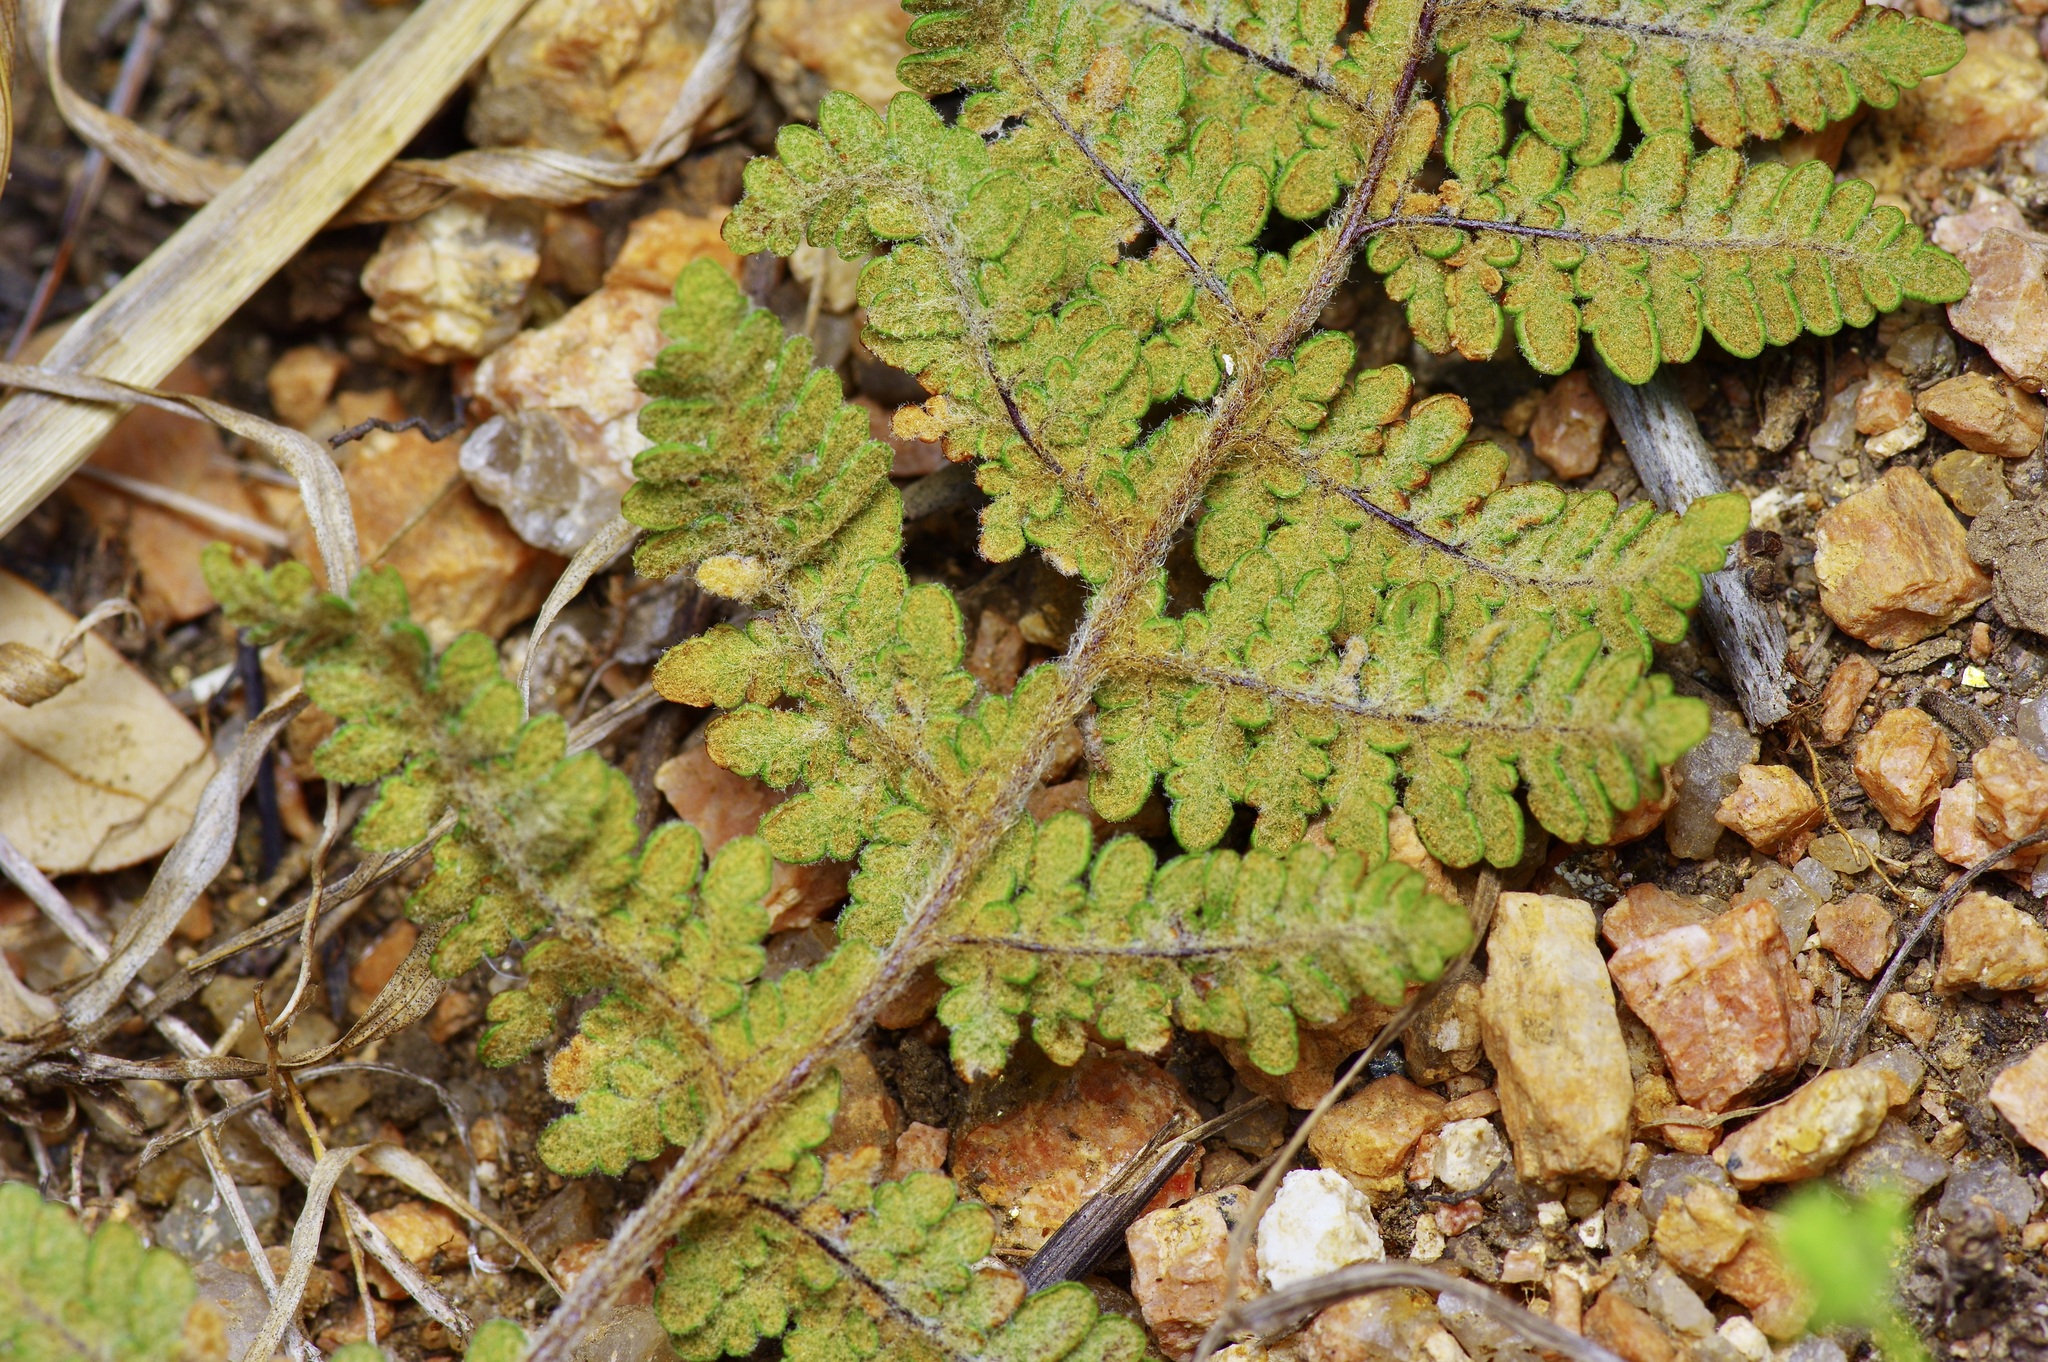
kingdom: Plantae
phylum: Tracheophyta
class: Polypodiopsida
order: Polypodiales
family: Pteridaceae
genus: Myriopteris
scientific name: Myriopteris tomentosa
